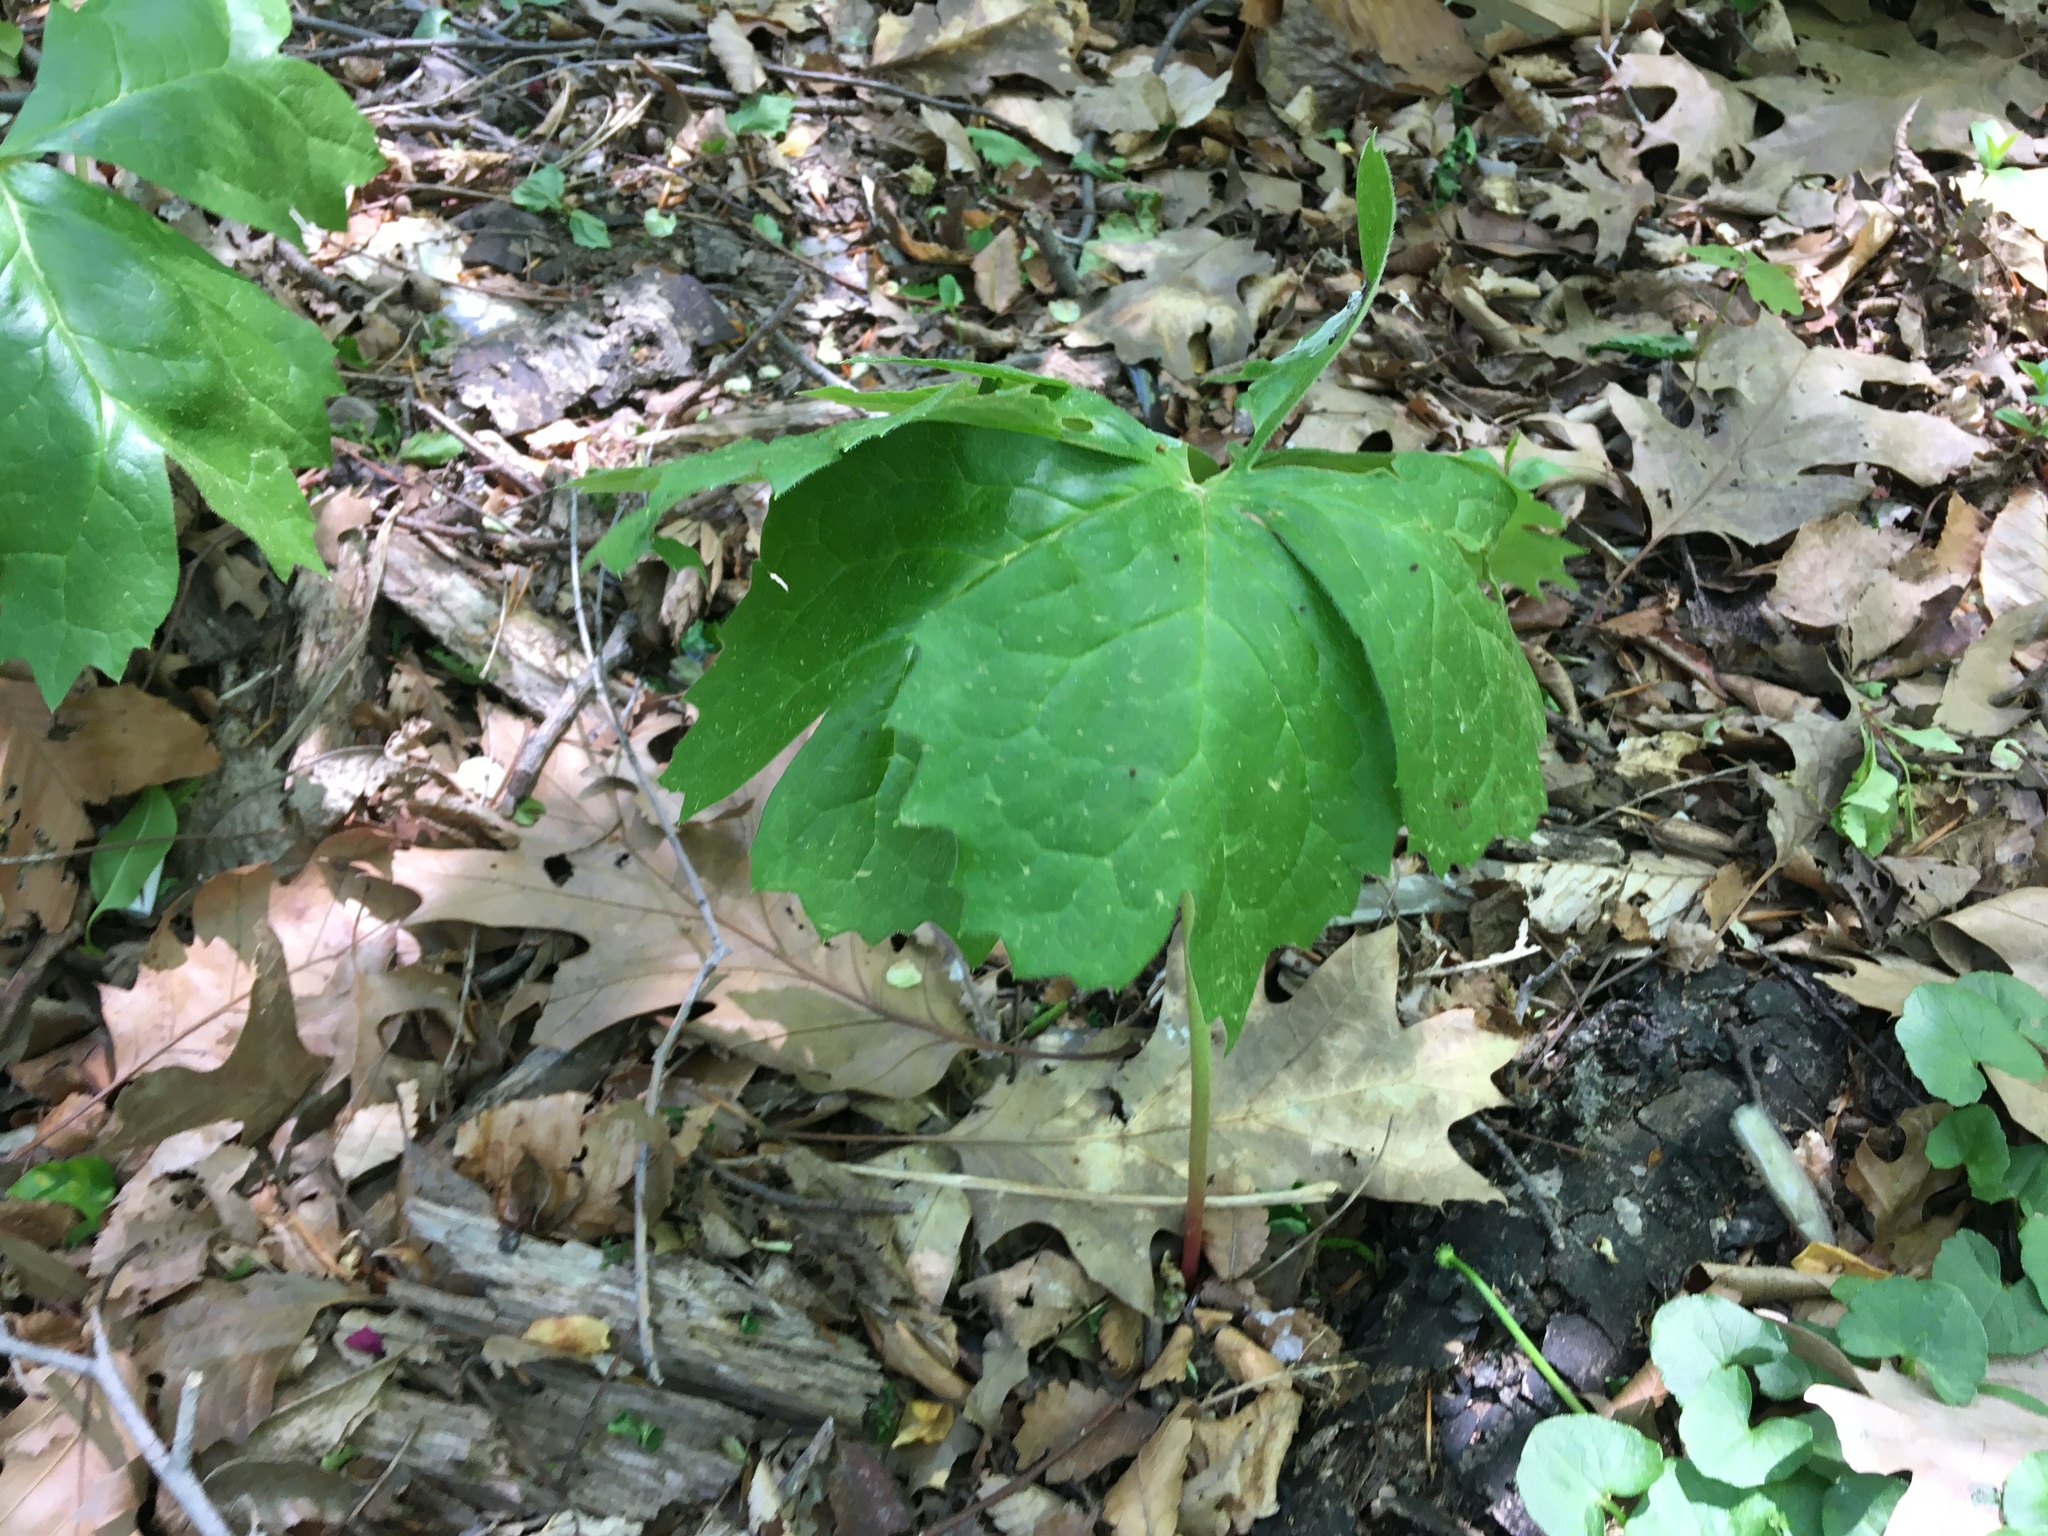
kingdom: Plantae
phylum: Tracheophyta
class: Magnoliopsida
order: Ranunculales
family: Berberidaceae
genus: Podophyllum
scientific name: Podophyllum peltatum
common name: Wild mandrake
